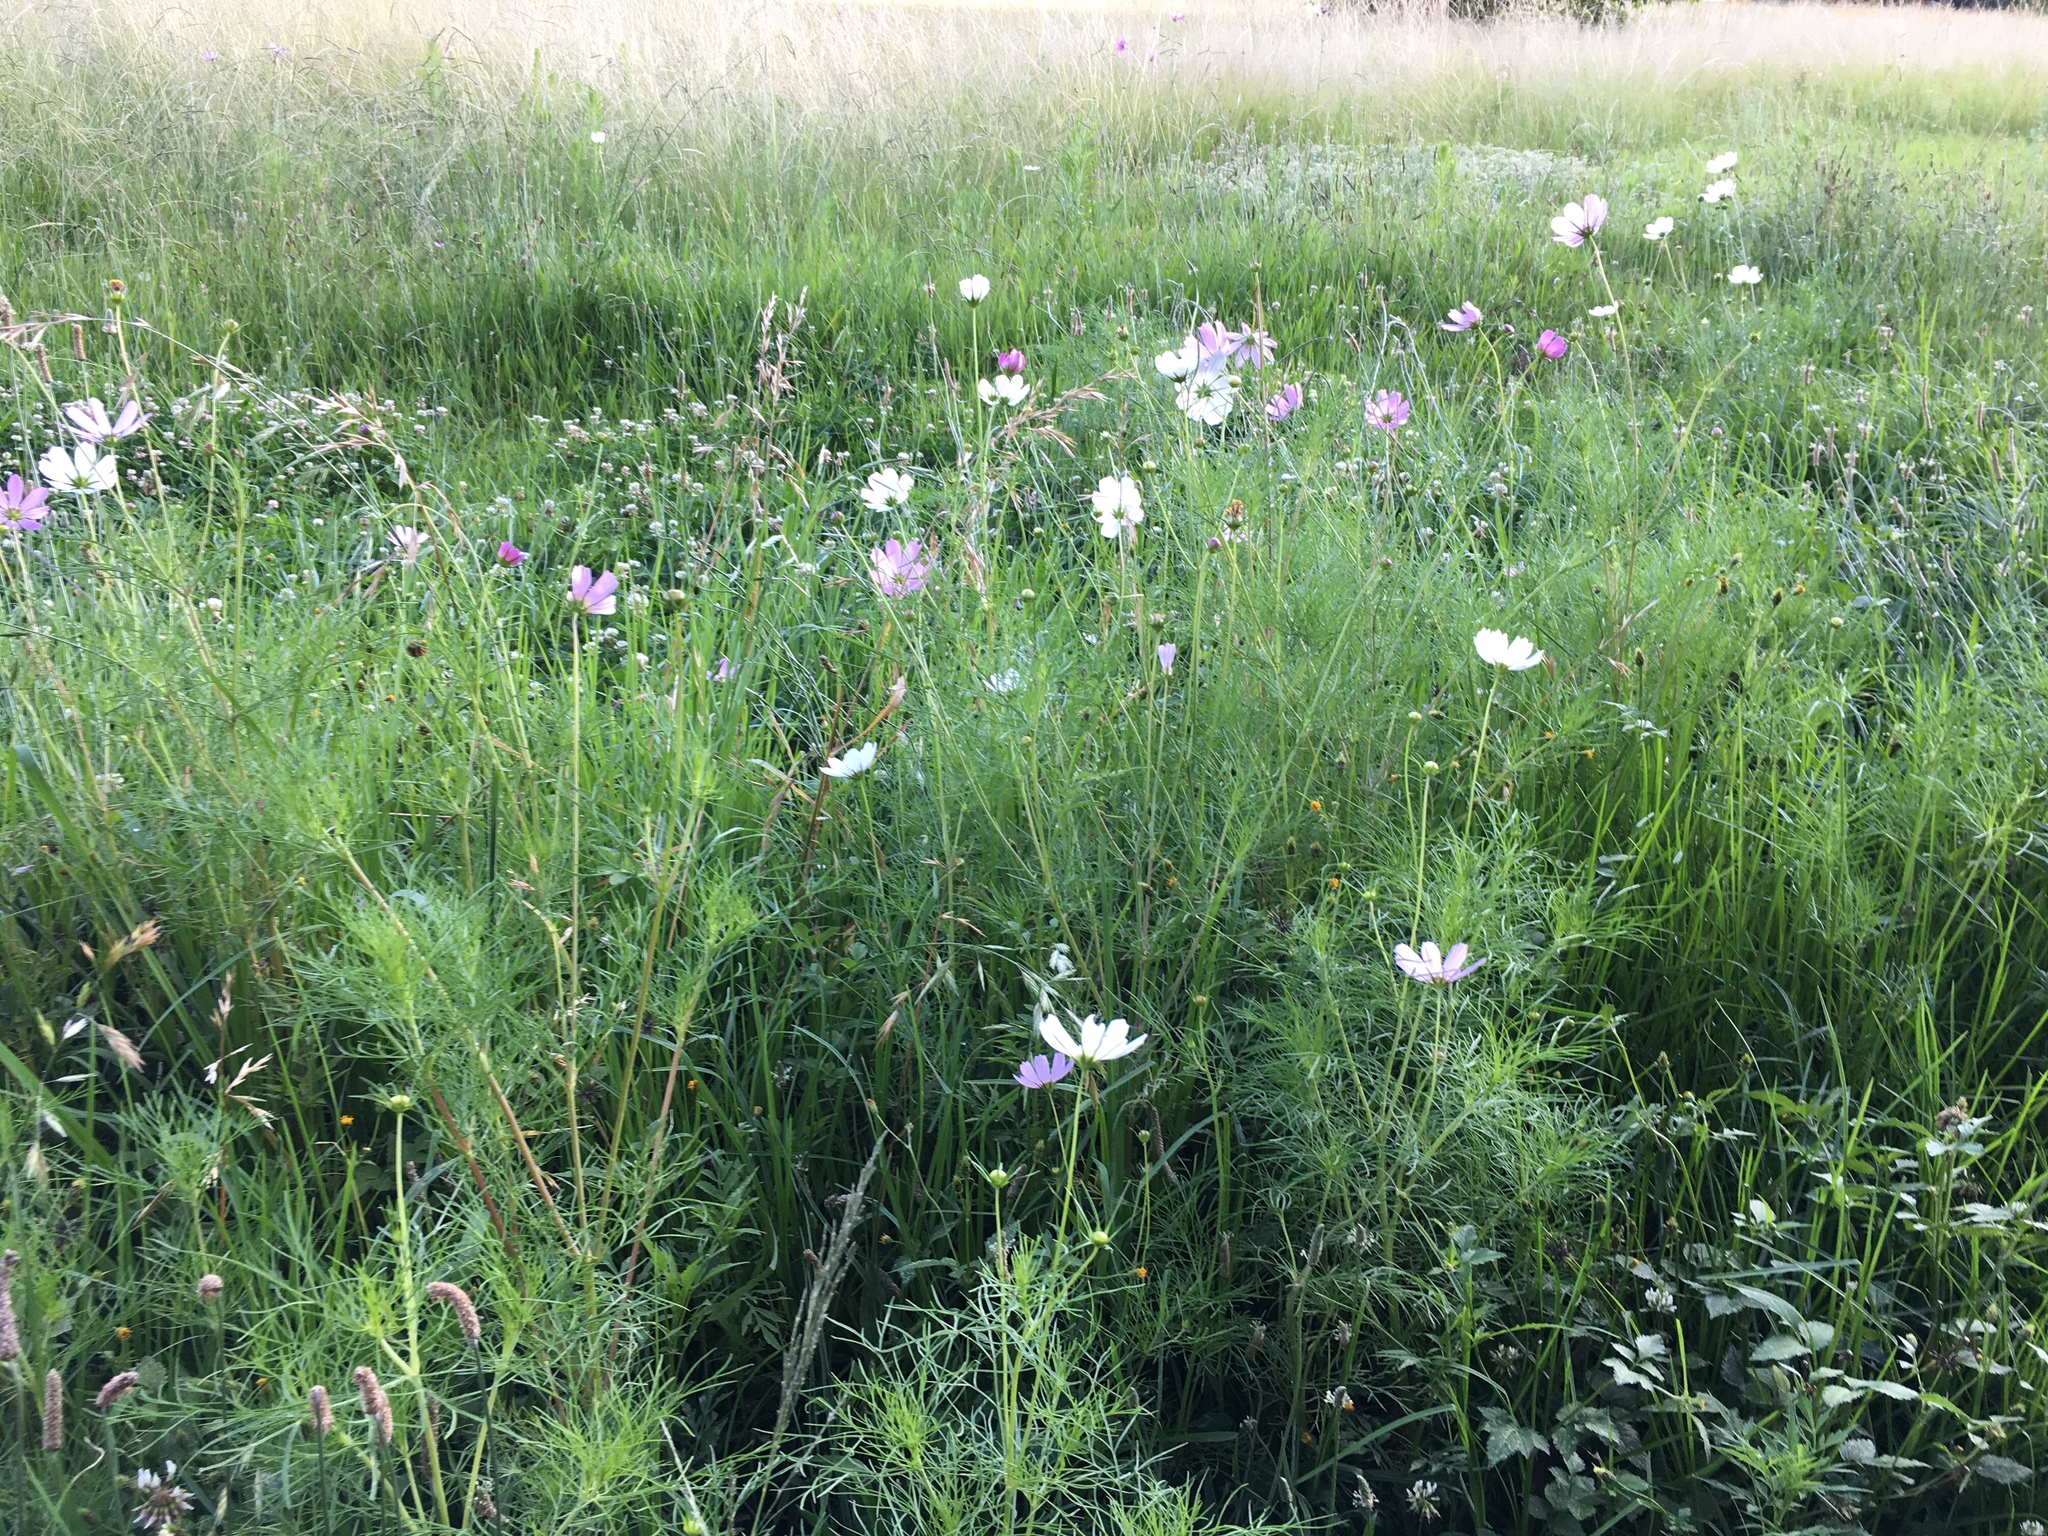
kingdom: Plantae
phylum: Tracheophyta
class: Magnoliopsida
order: Asterales
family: Asteraceae
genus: Cosmos
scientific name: Cosmos bipinnatus
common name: Garden cosmos
